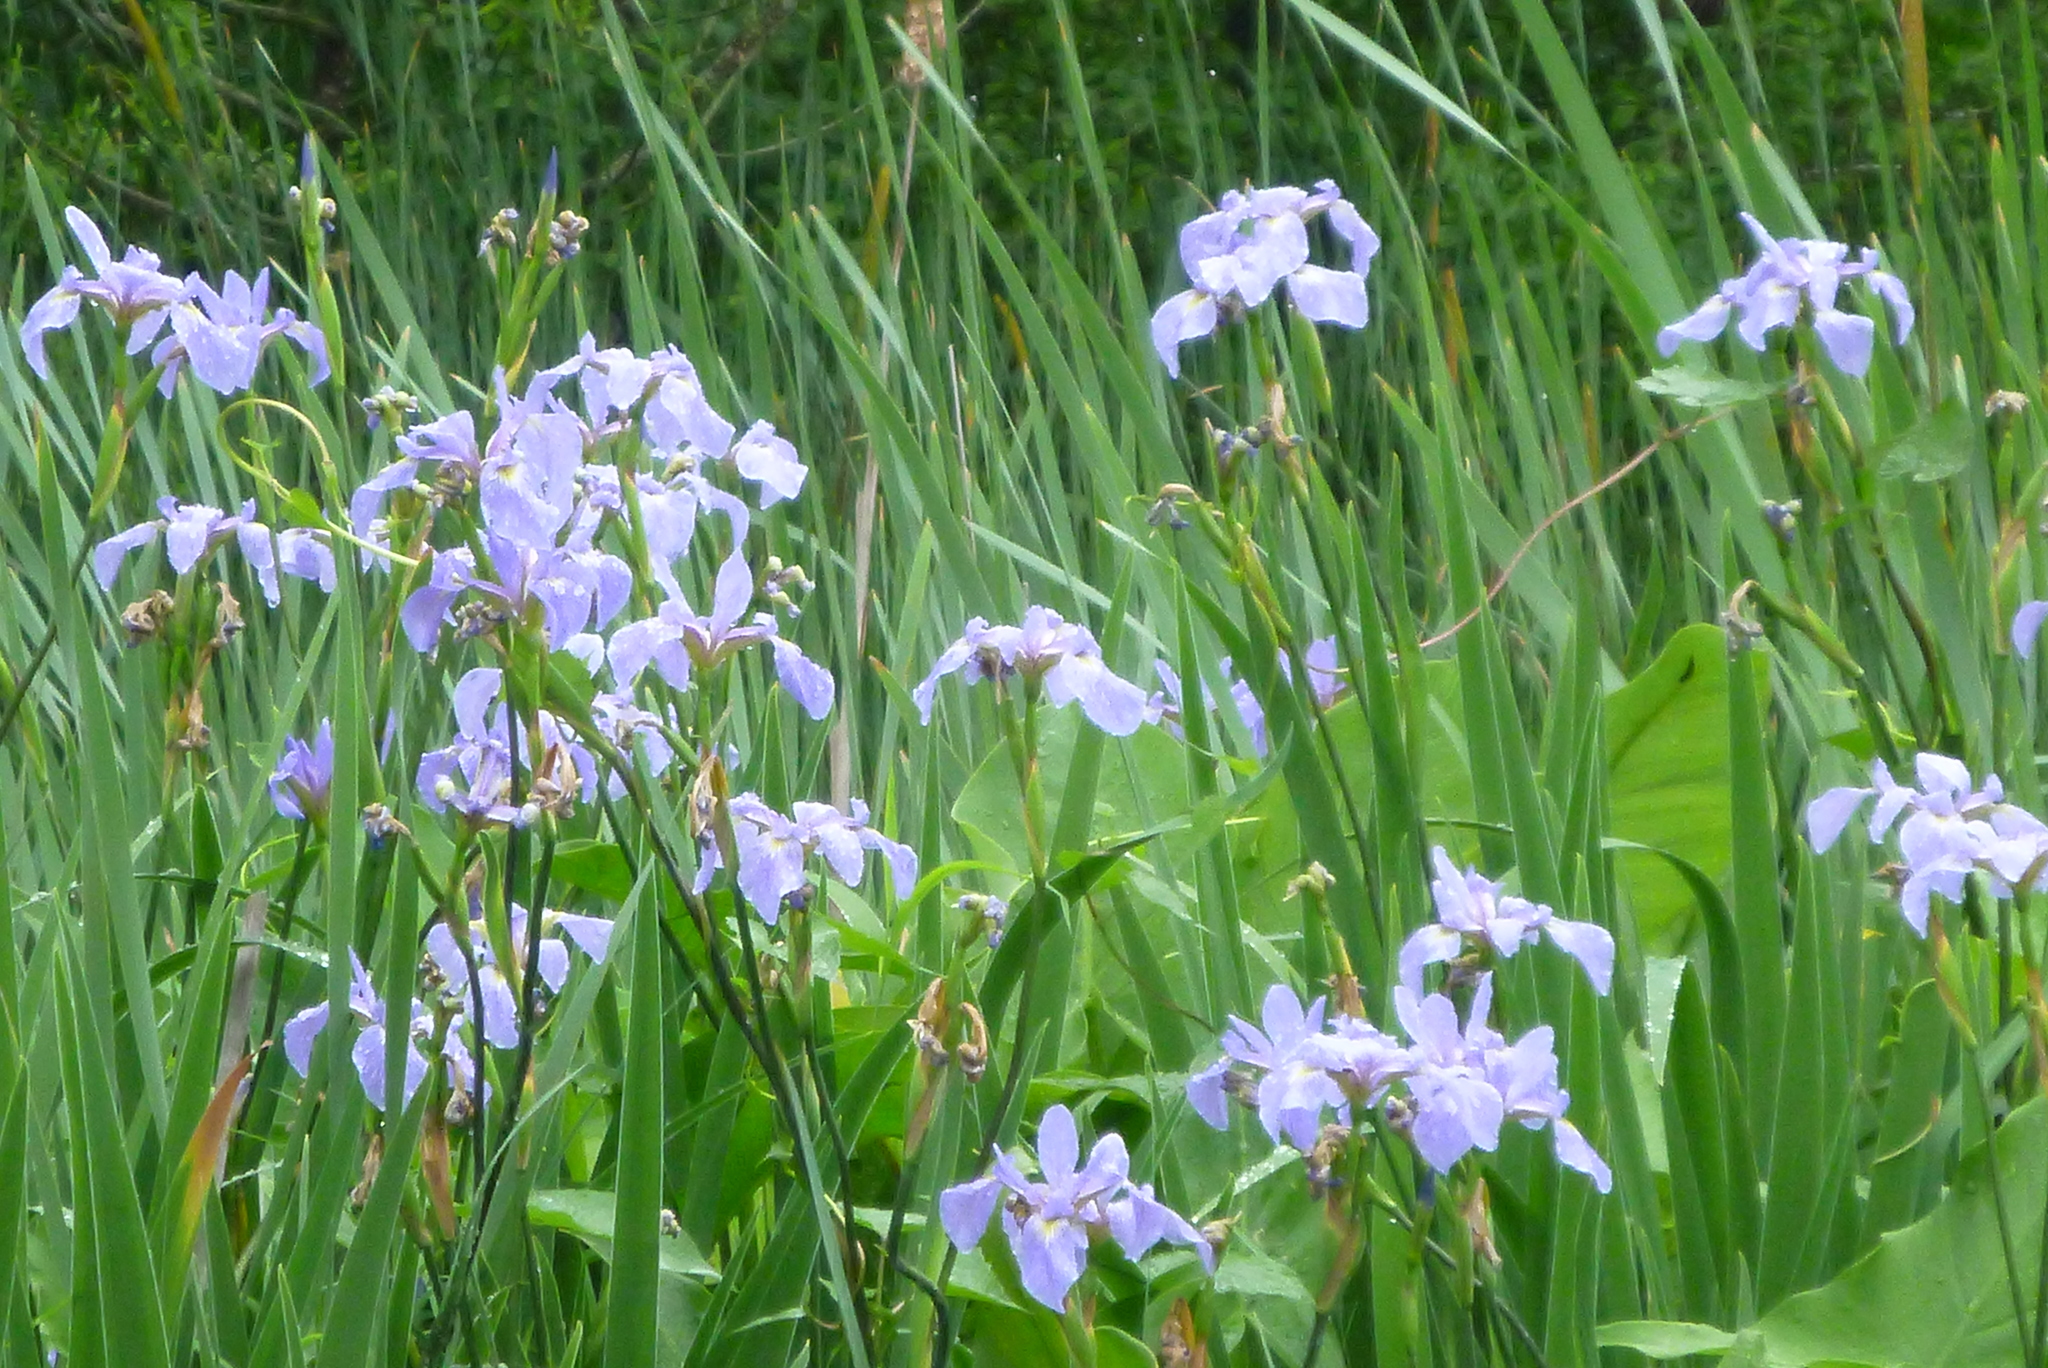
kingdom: Plantae
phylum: Tracheophyta
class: Liliopsida
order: Asparagales
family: Iridaceae
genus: Iris
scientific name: Iris versicolor
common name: Purple iris
